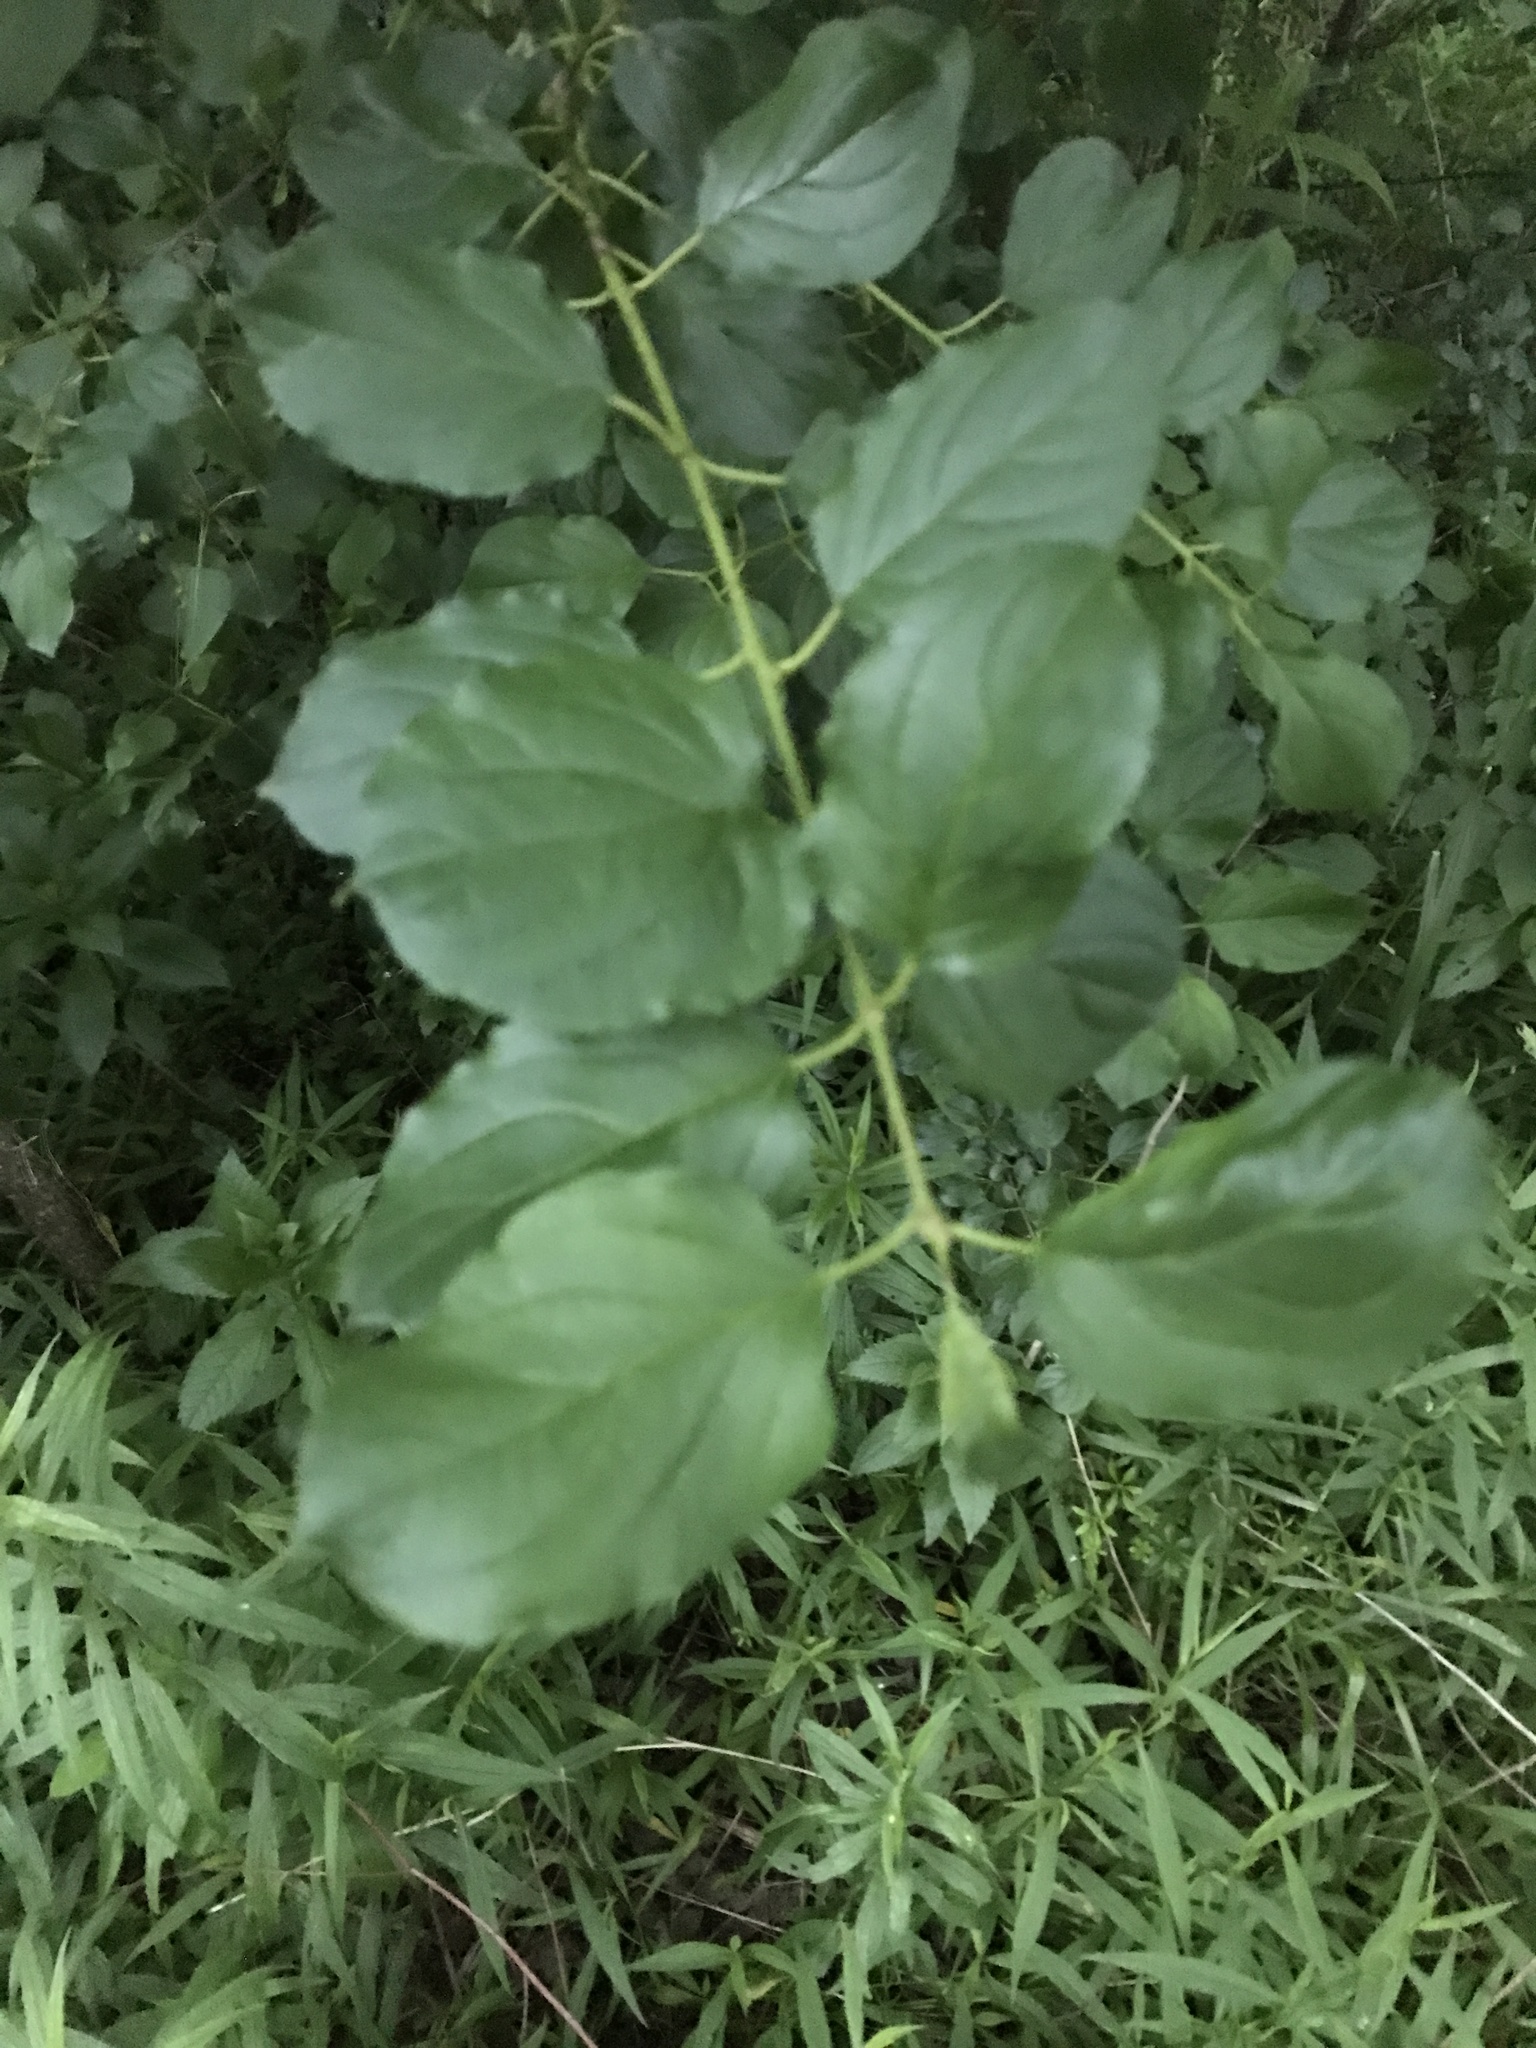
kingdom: Plantae
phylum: Tracheophyta
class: Magnoliopsida
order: Rosales
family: Rhamnaceae
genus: Rhamnus
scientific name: Rhamnus cathartica
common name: Common buckthorn
